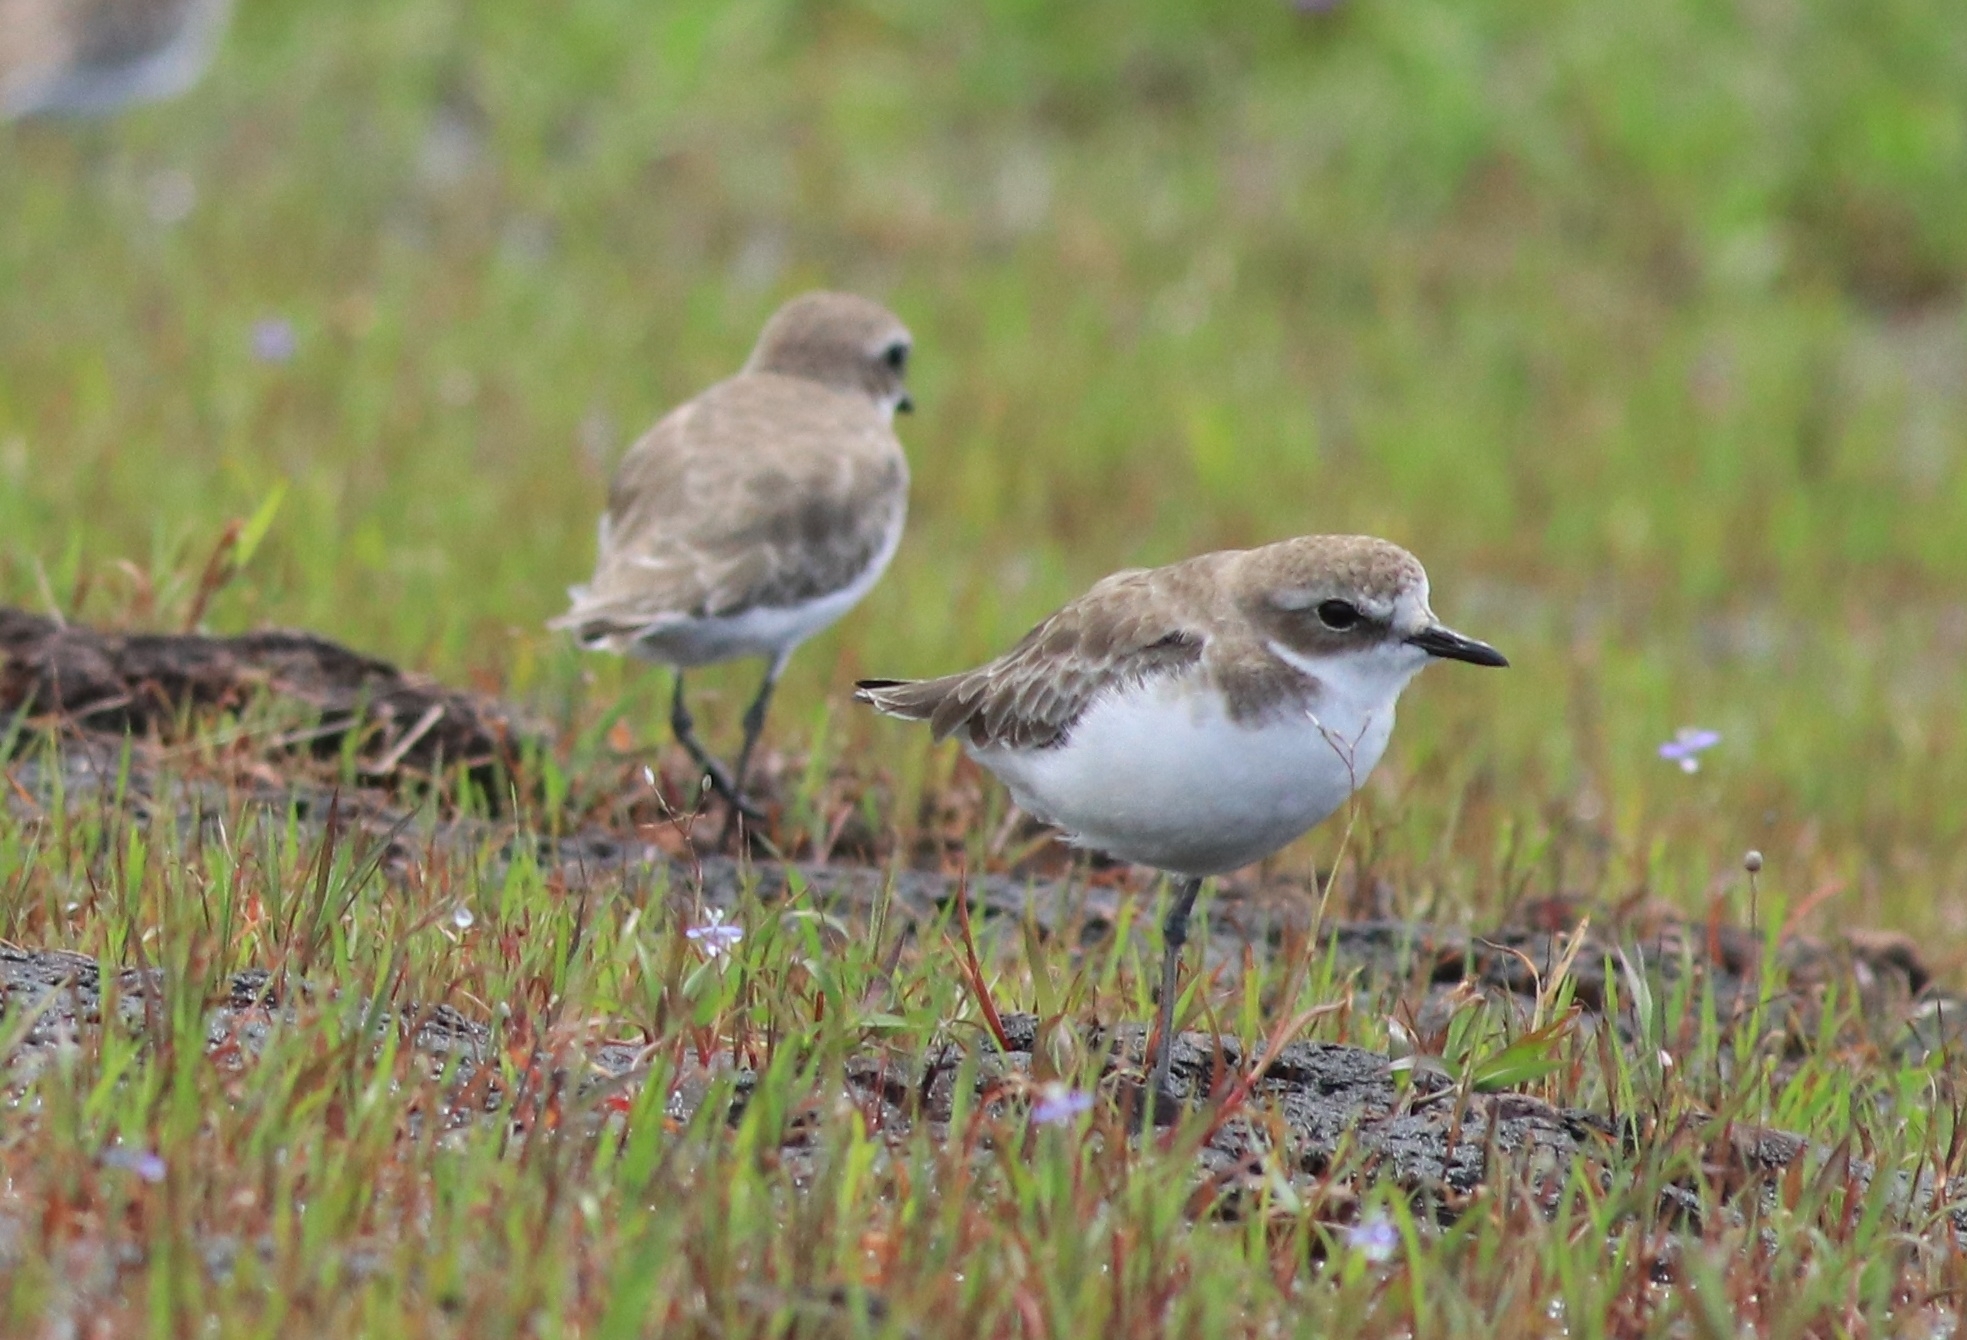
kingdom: Animalia
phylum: Chordata
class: Aves
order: Charadriiformes
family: Charadriidae
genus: Anarhynchus
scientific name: Anarhynchus
